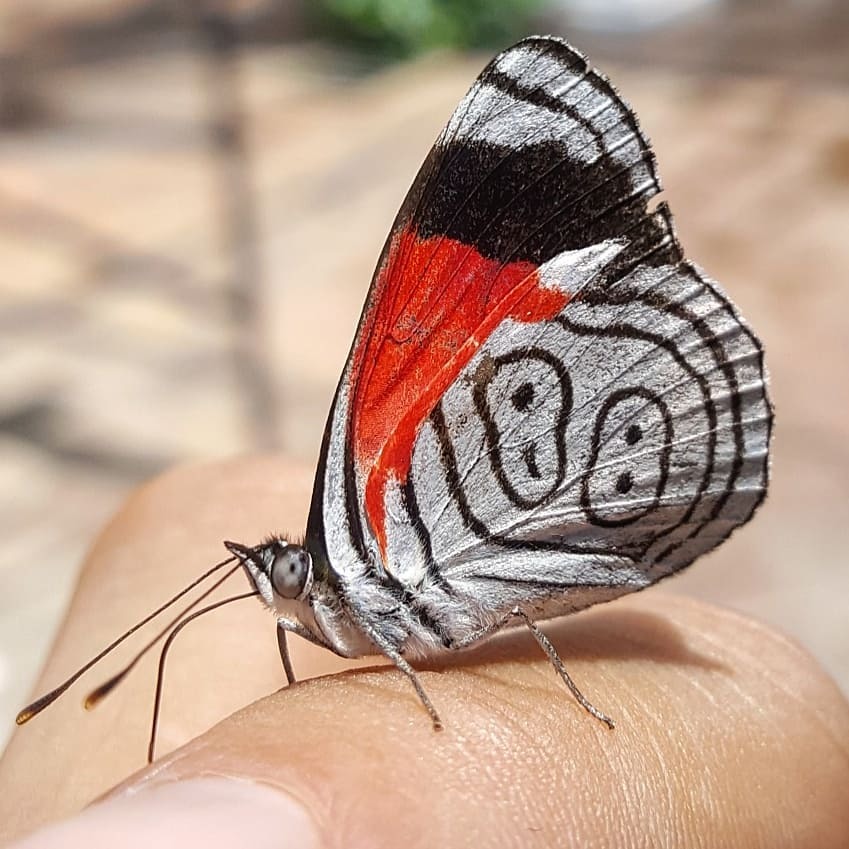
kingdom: Animalia
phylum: Arthropoda
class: Insecta
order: Lepidoptera
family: Nymphalidae
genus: Diaethria
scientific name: Diaethria anna
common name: Anna’s eighty-eight
